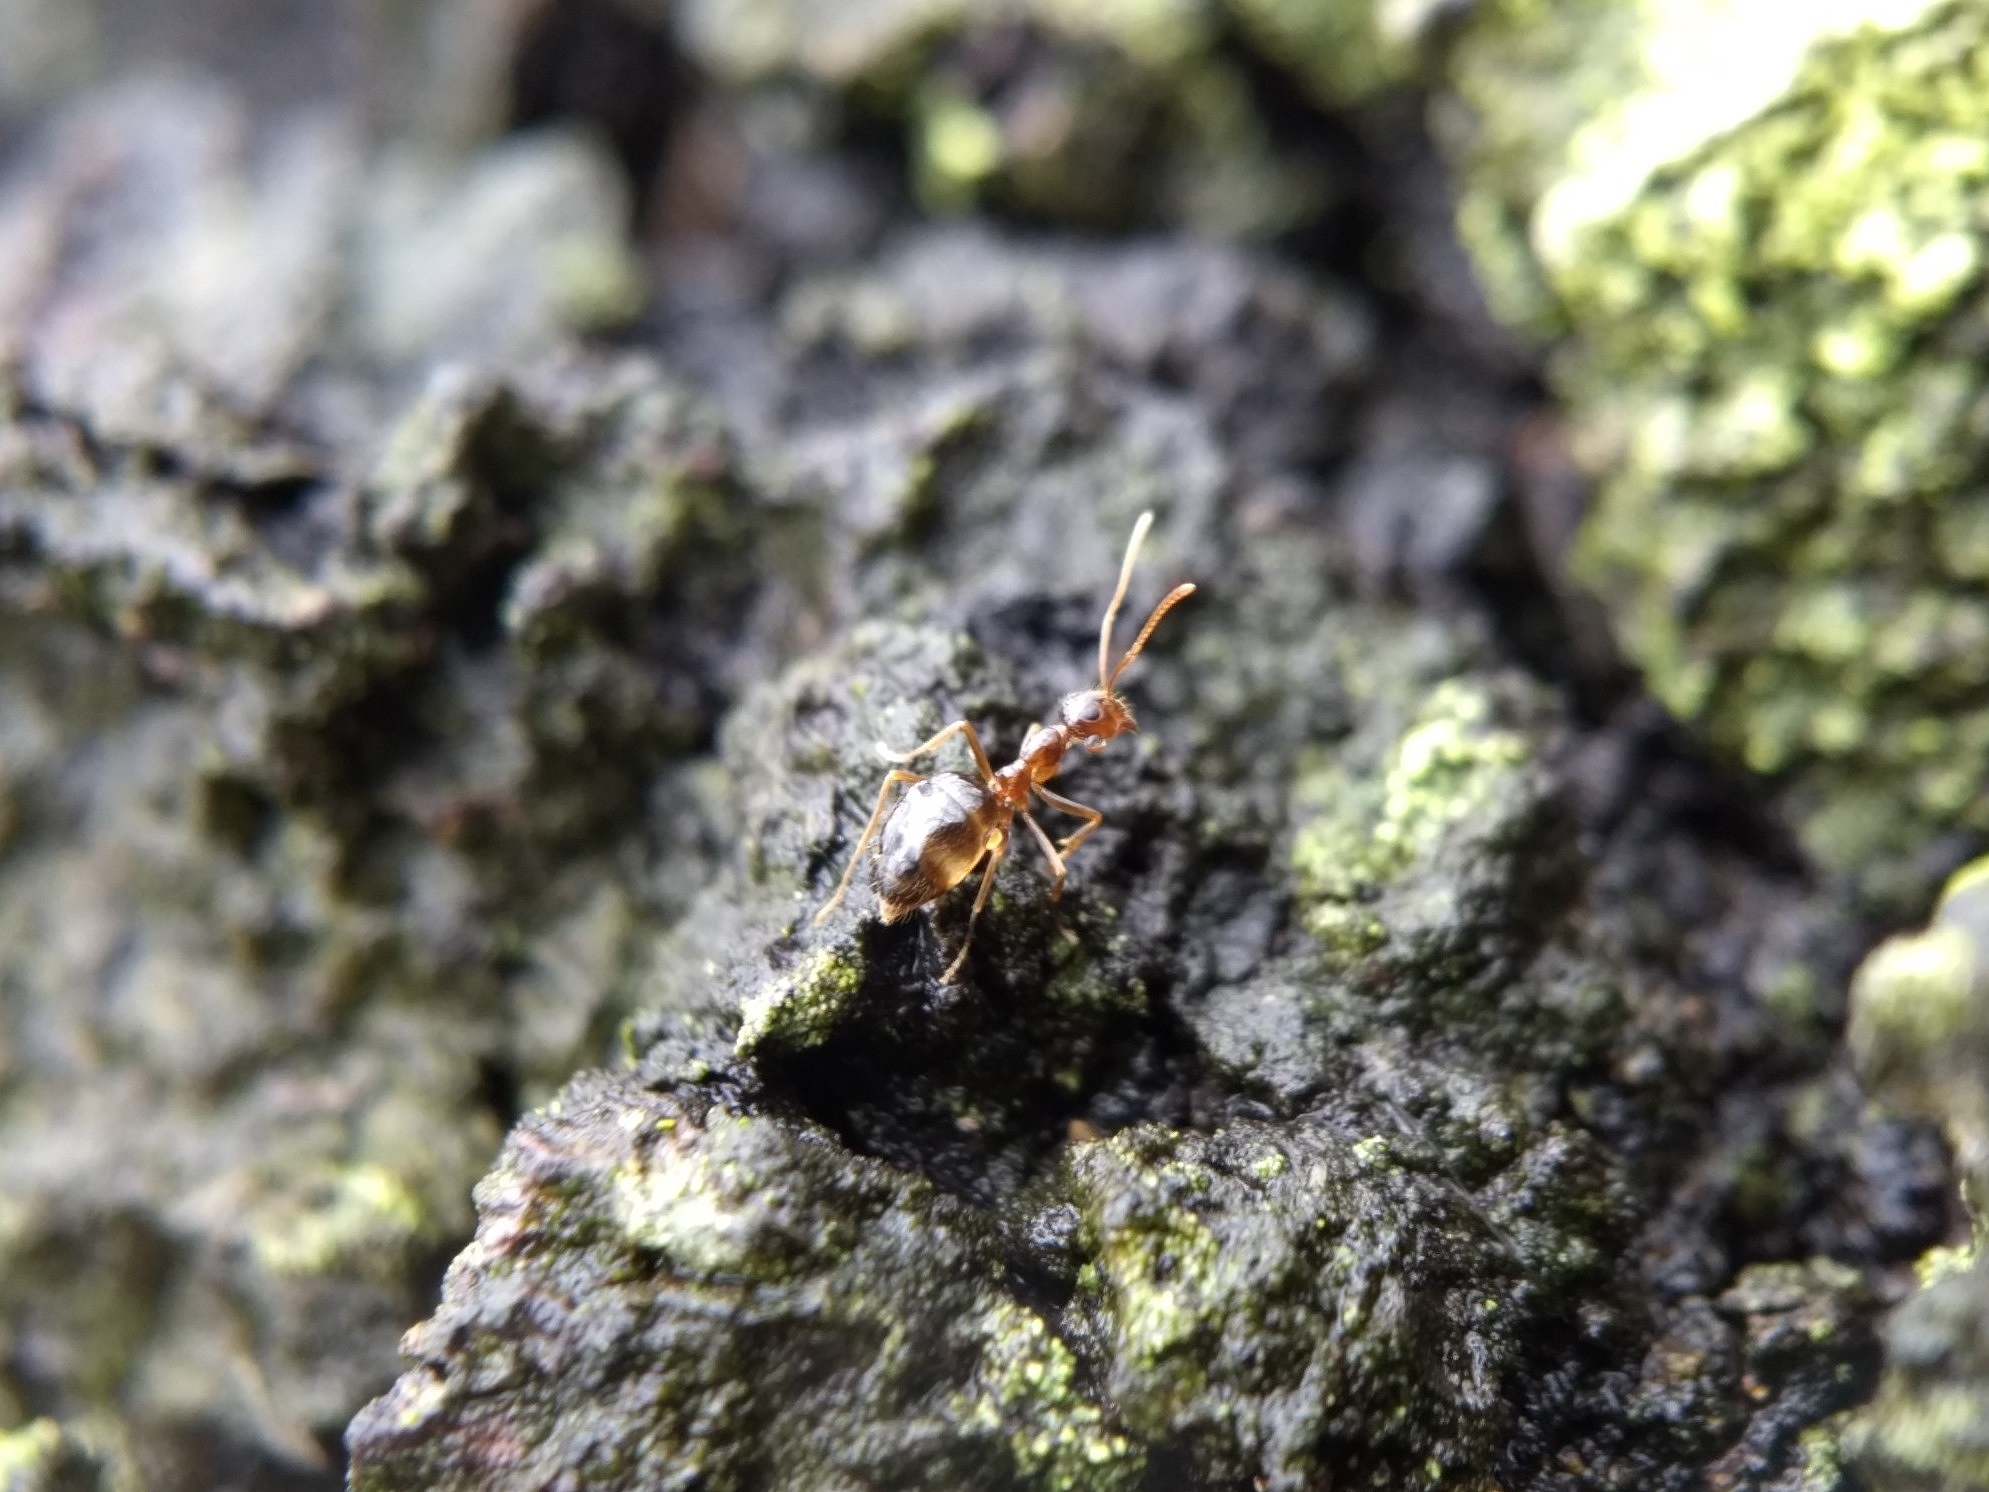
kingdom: Animalia
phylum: Arthropoda
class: Insecta
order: Hymenoptera
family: Formicidae
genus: Prenolepis
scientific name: Prenolepis imparis
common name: Small honey ant
